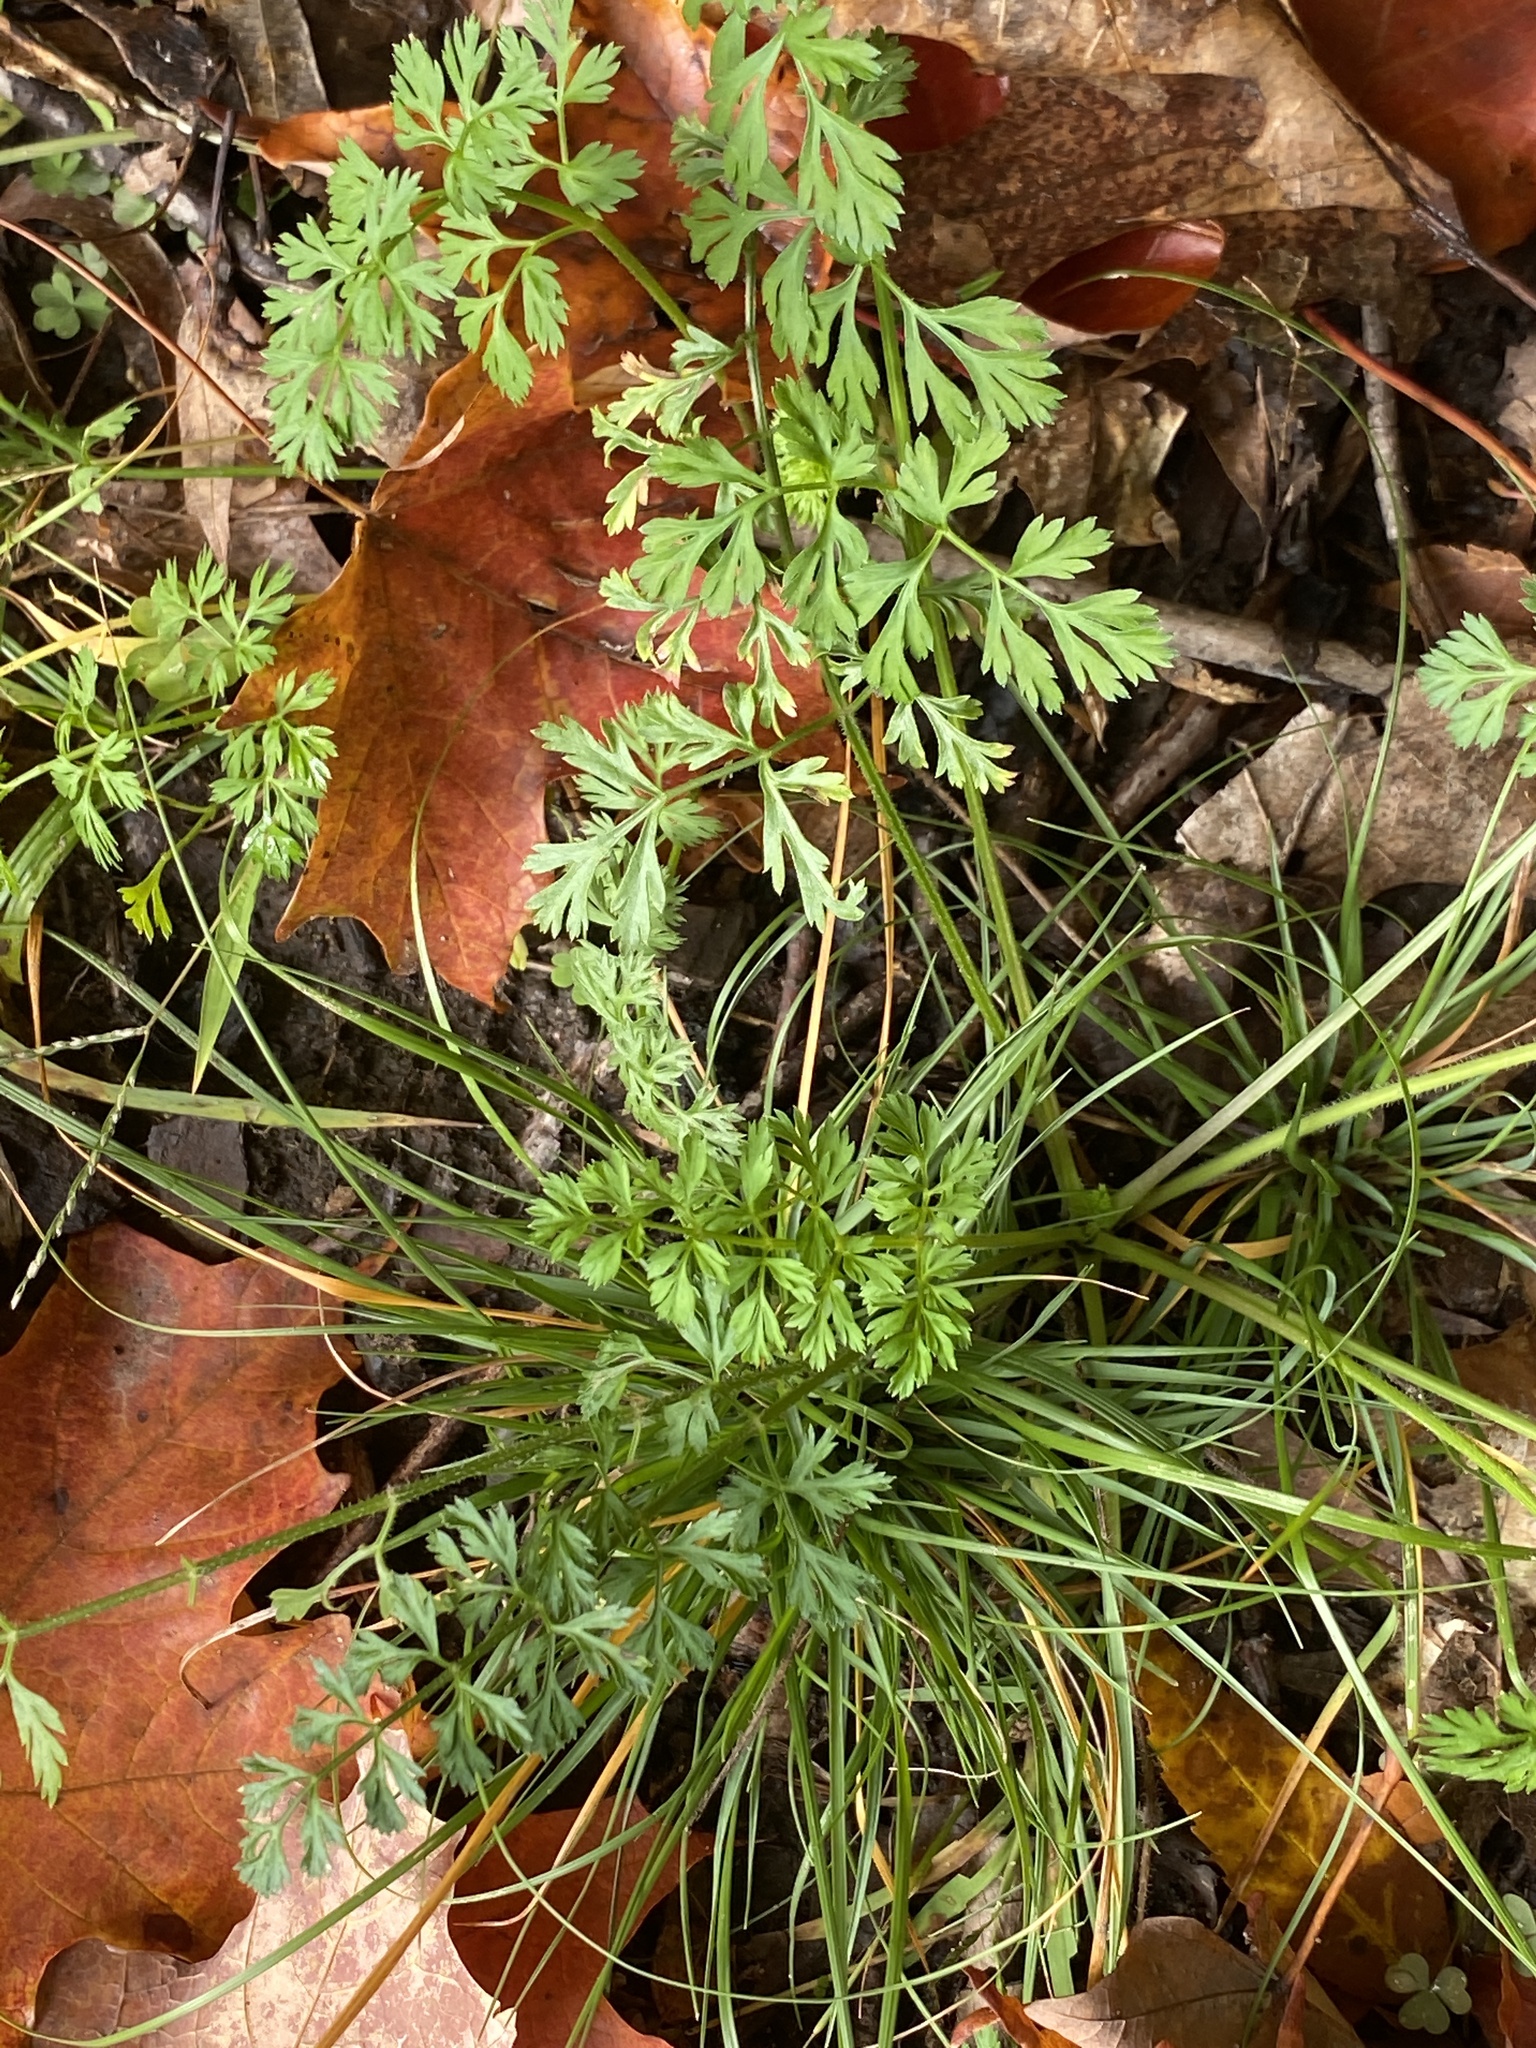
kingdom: Plantae
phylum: Tracheophyta
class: Magnoliopsida
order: Apiales
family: Apiaceae
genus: Daucus
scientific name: Daucus carota
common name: Wild carrot
